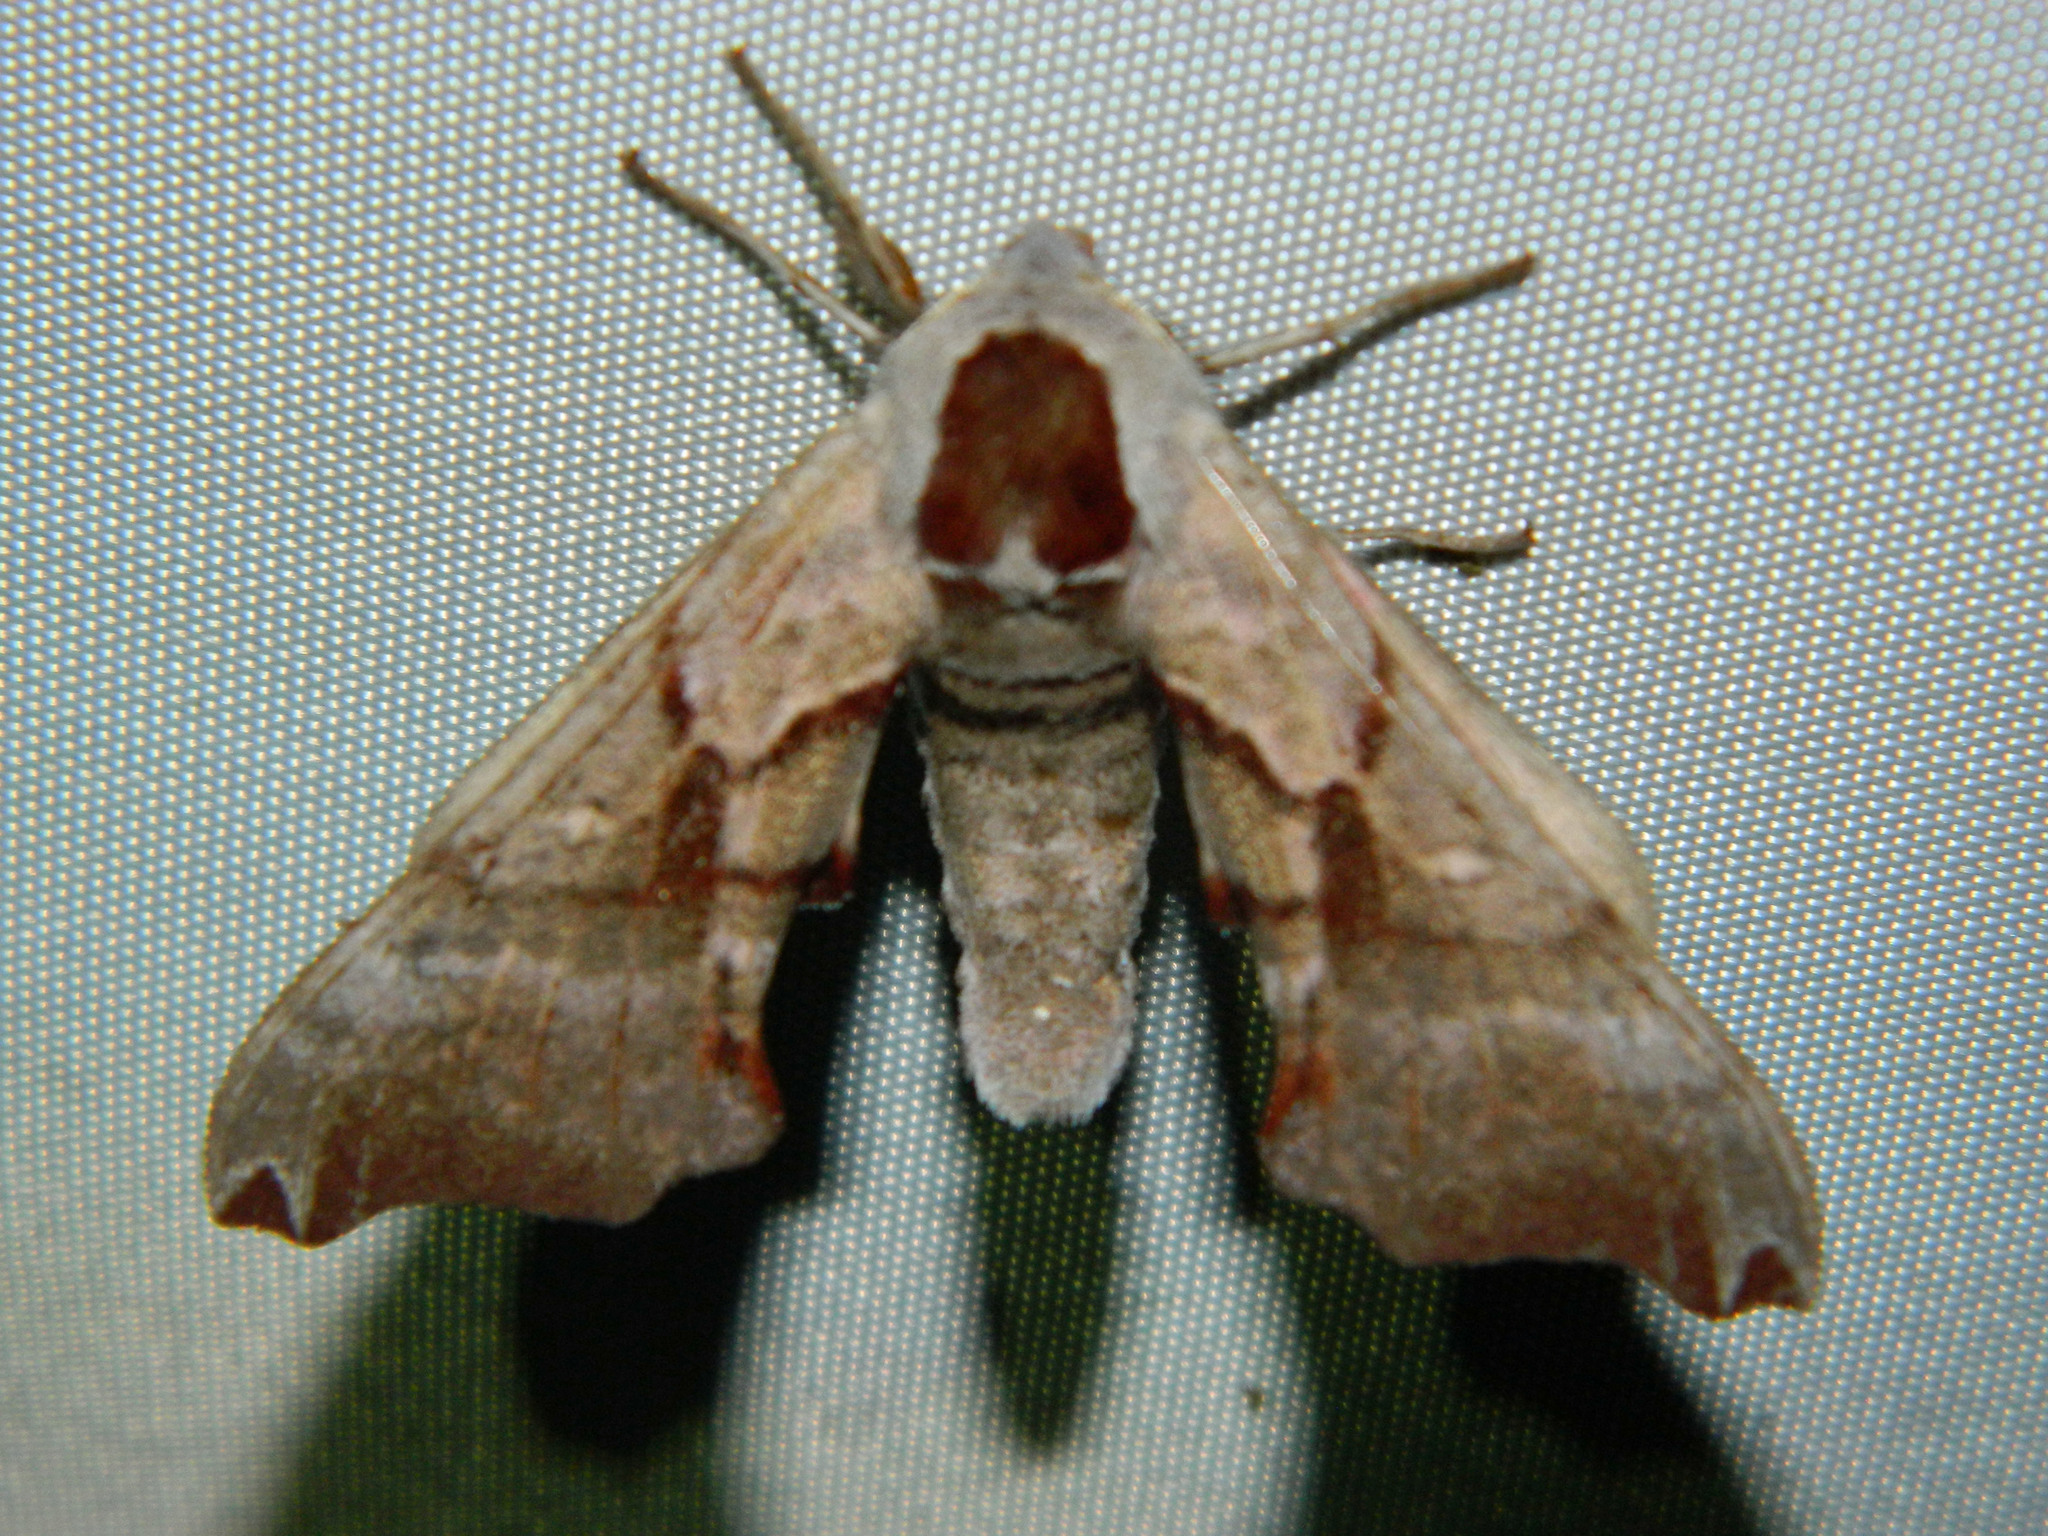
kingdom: Animalia
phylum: Arthropoda
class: Insecta
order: Lepidoptera
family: Sphingidae
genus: Smerinthus
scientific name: Smerinthus jamaicensis
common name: Twin spotted sphinx
